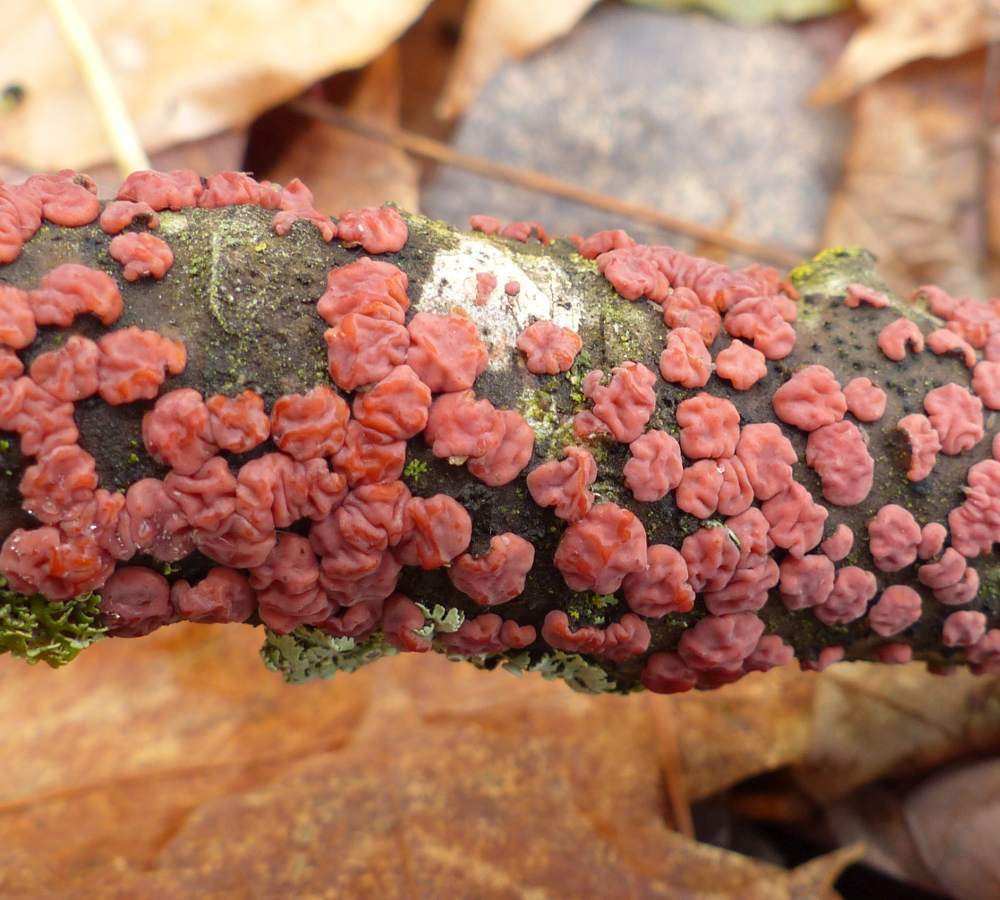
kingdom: Fungi
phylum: Basidiomycota
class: Agaricomycetes
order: Russulales
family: Peniophoraceae
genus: Peniophora
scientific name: Peniophora rufa
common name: Red tree brain fungus
